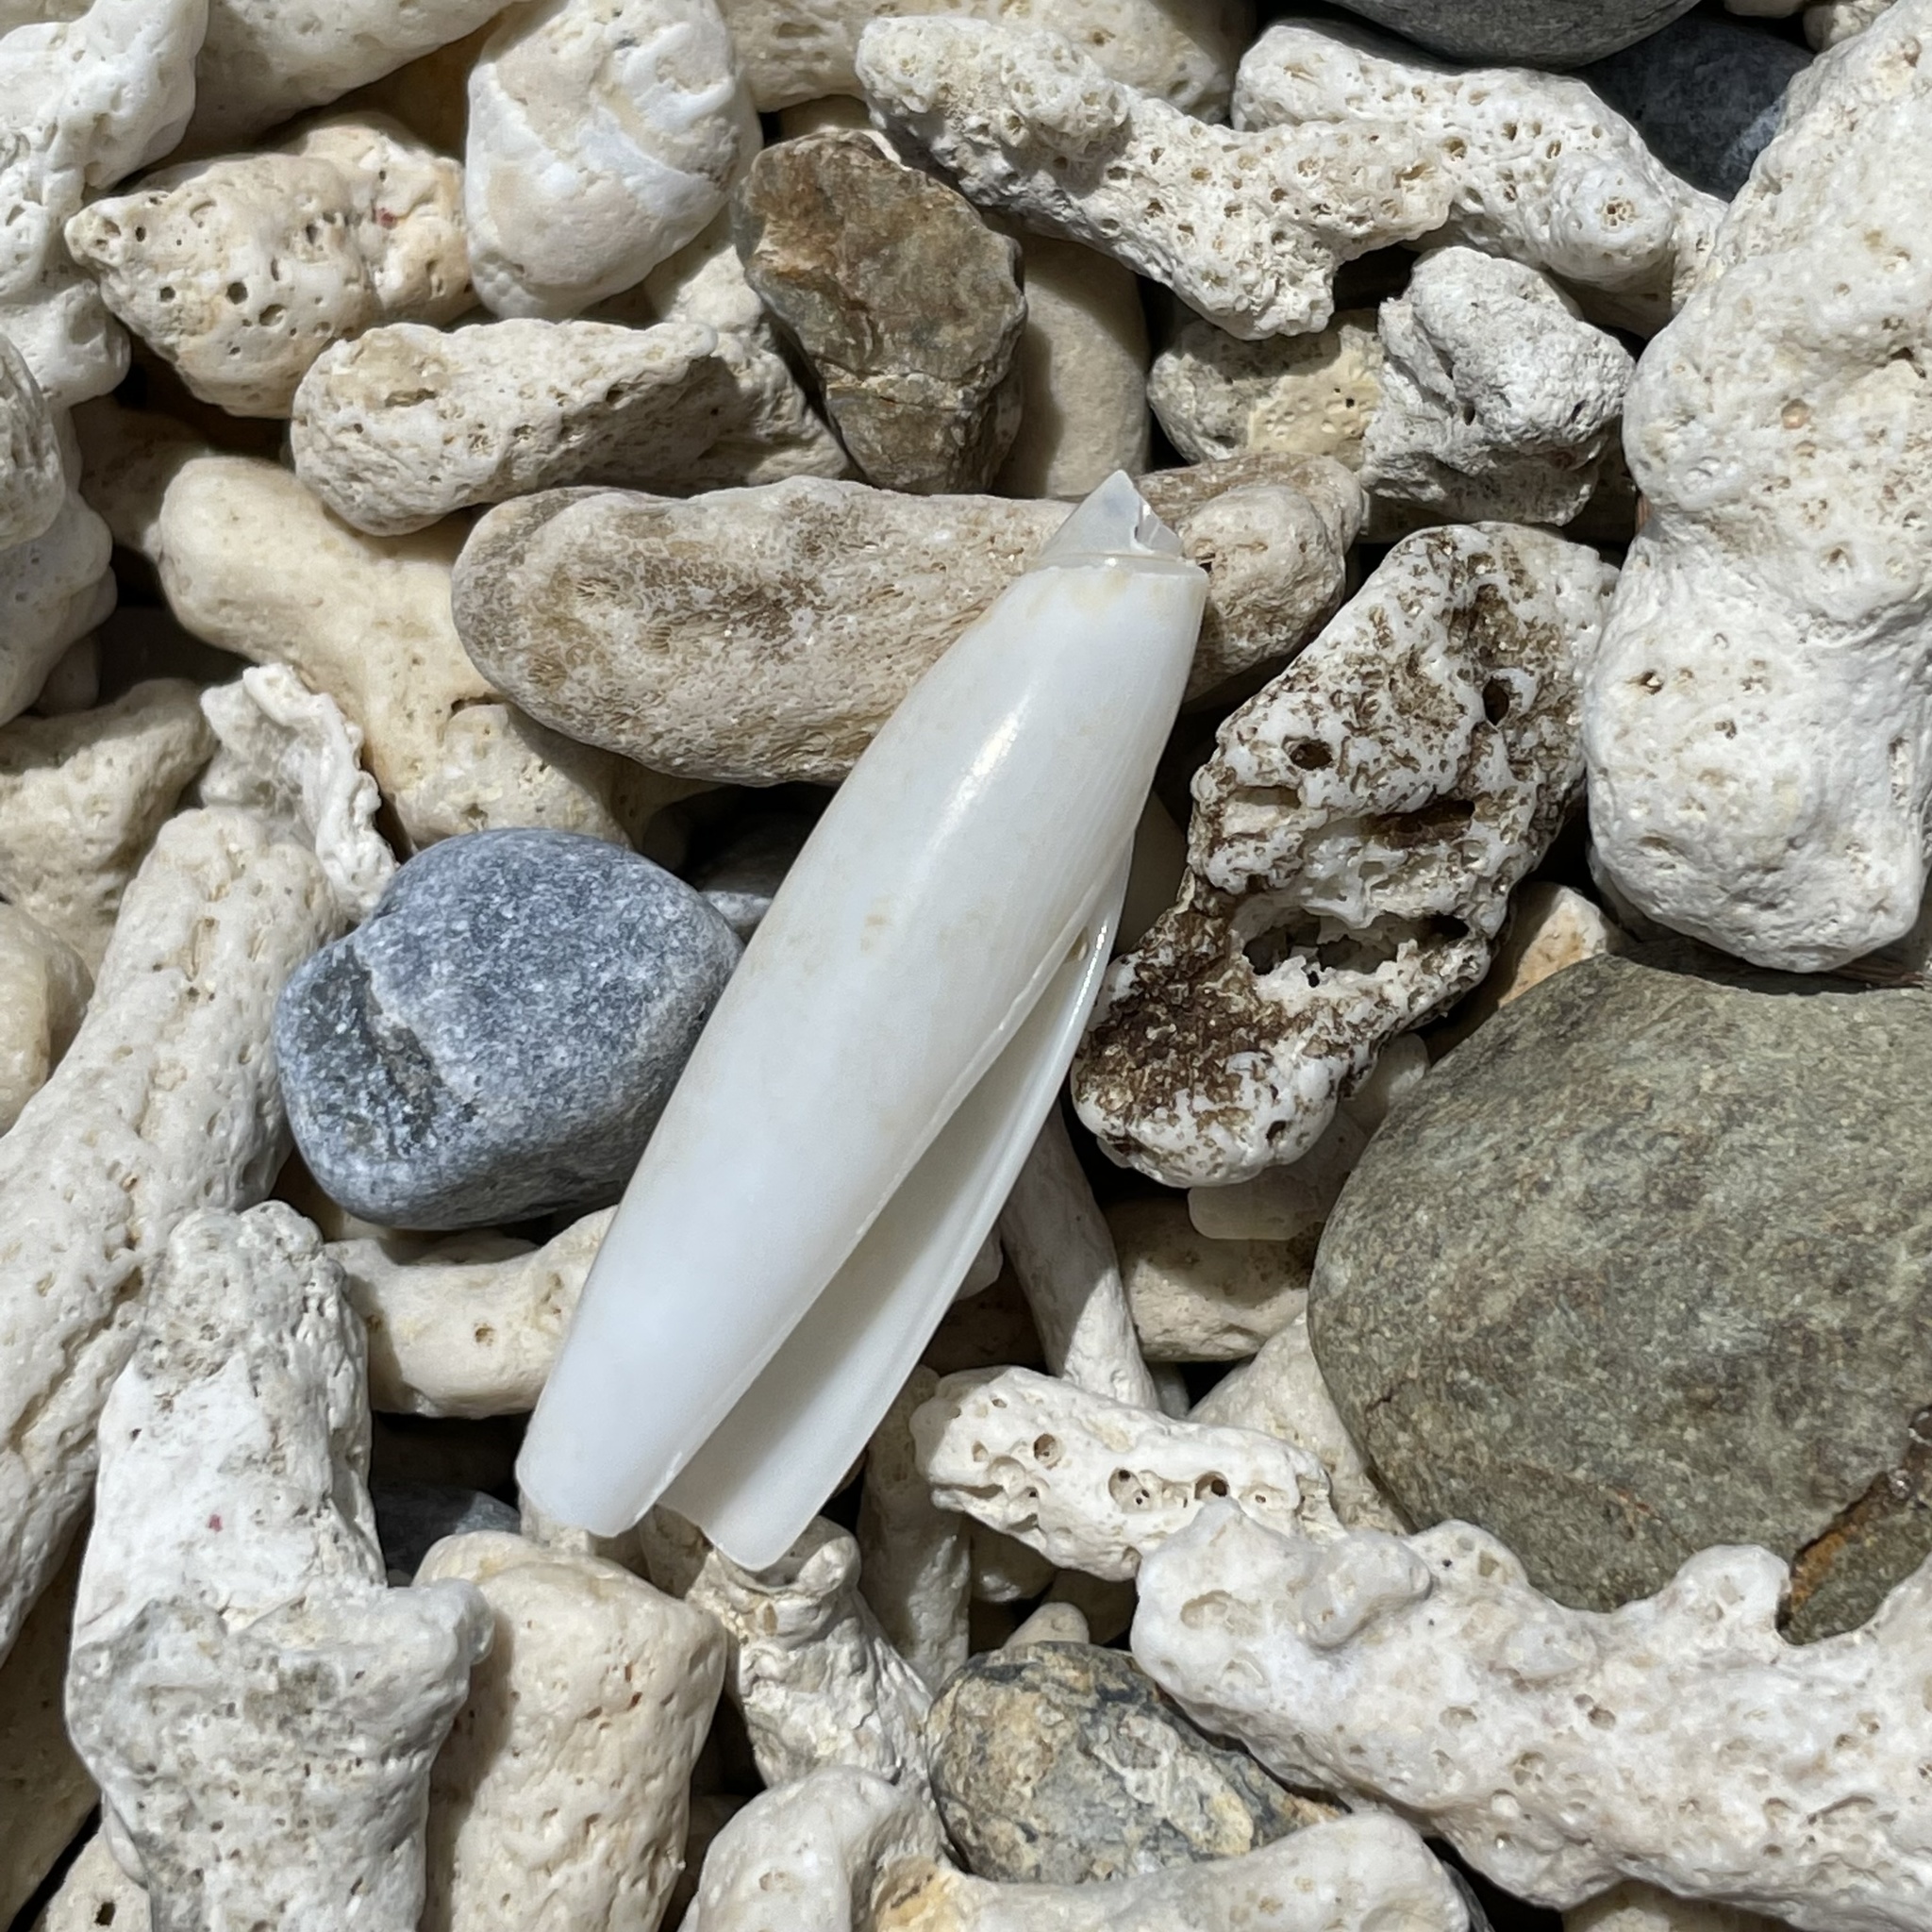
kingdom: Animalia
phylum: Mollusca
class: Gastropoda
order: Littorinimorpha
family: Seraphsidae
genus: Terebellum
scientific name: Terebellum terebellum
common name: Little auger
